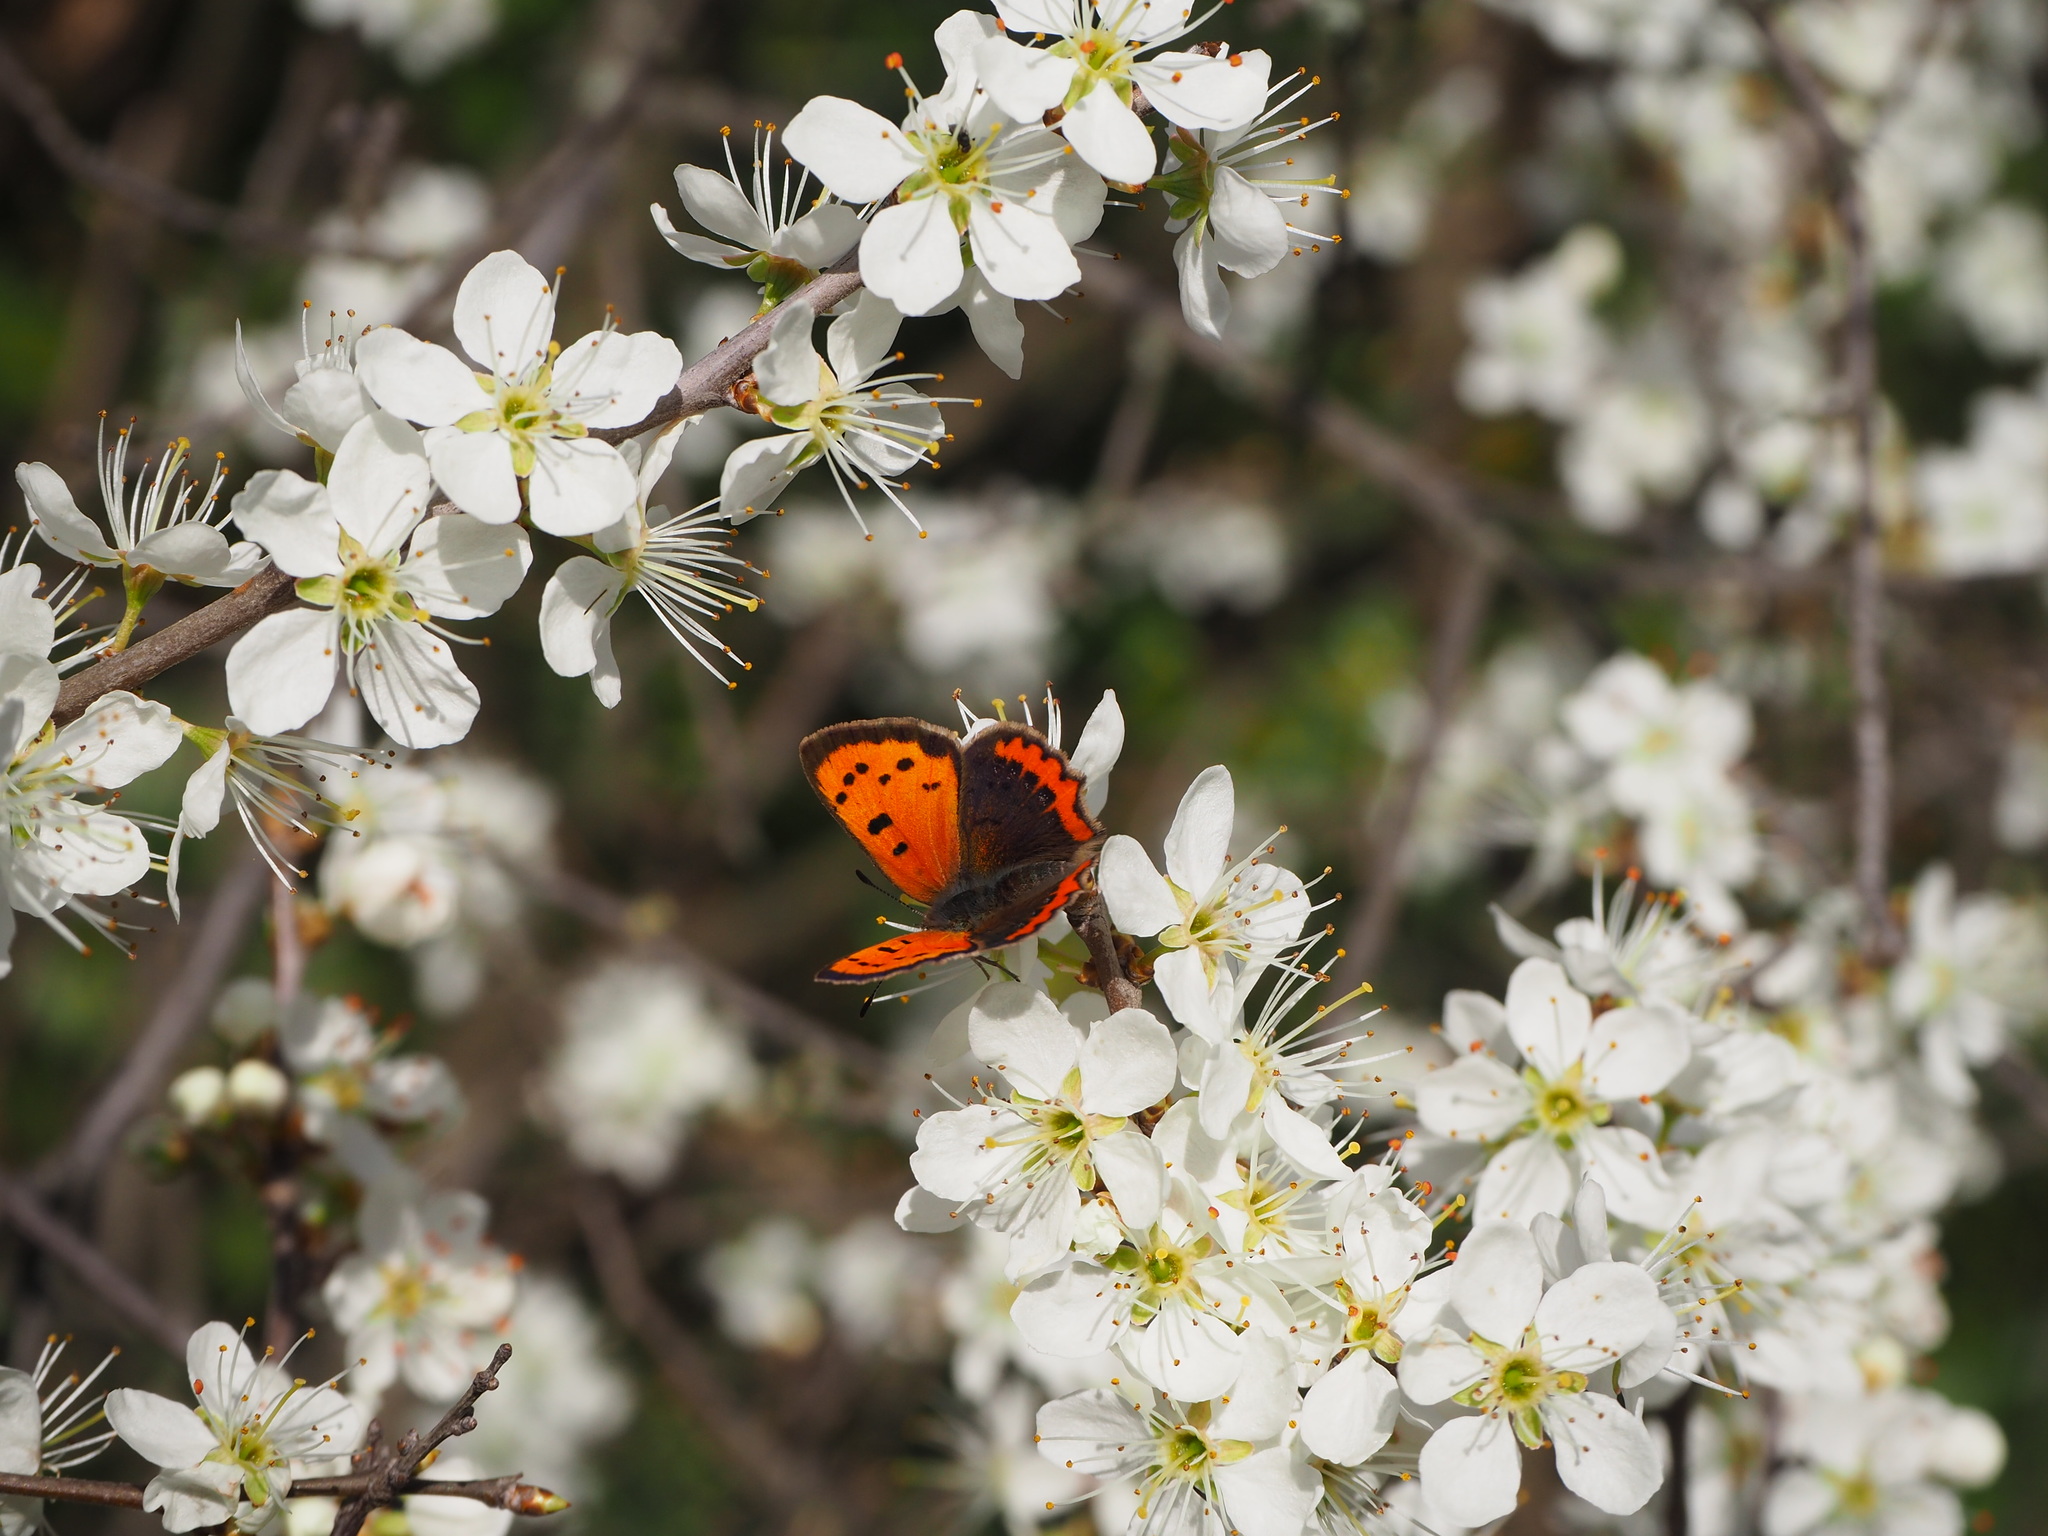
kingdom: Animalia
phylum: Arthropoda
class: Insecta
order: Lepidoptera
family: Lycaenidae
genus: Lycaena
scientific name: Lycaena phlaeas
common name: Small copper
